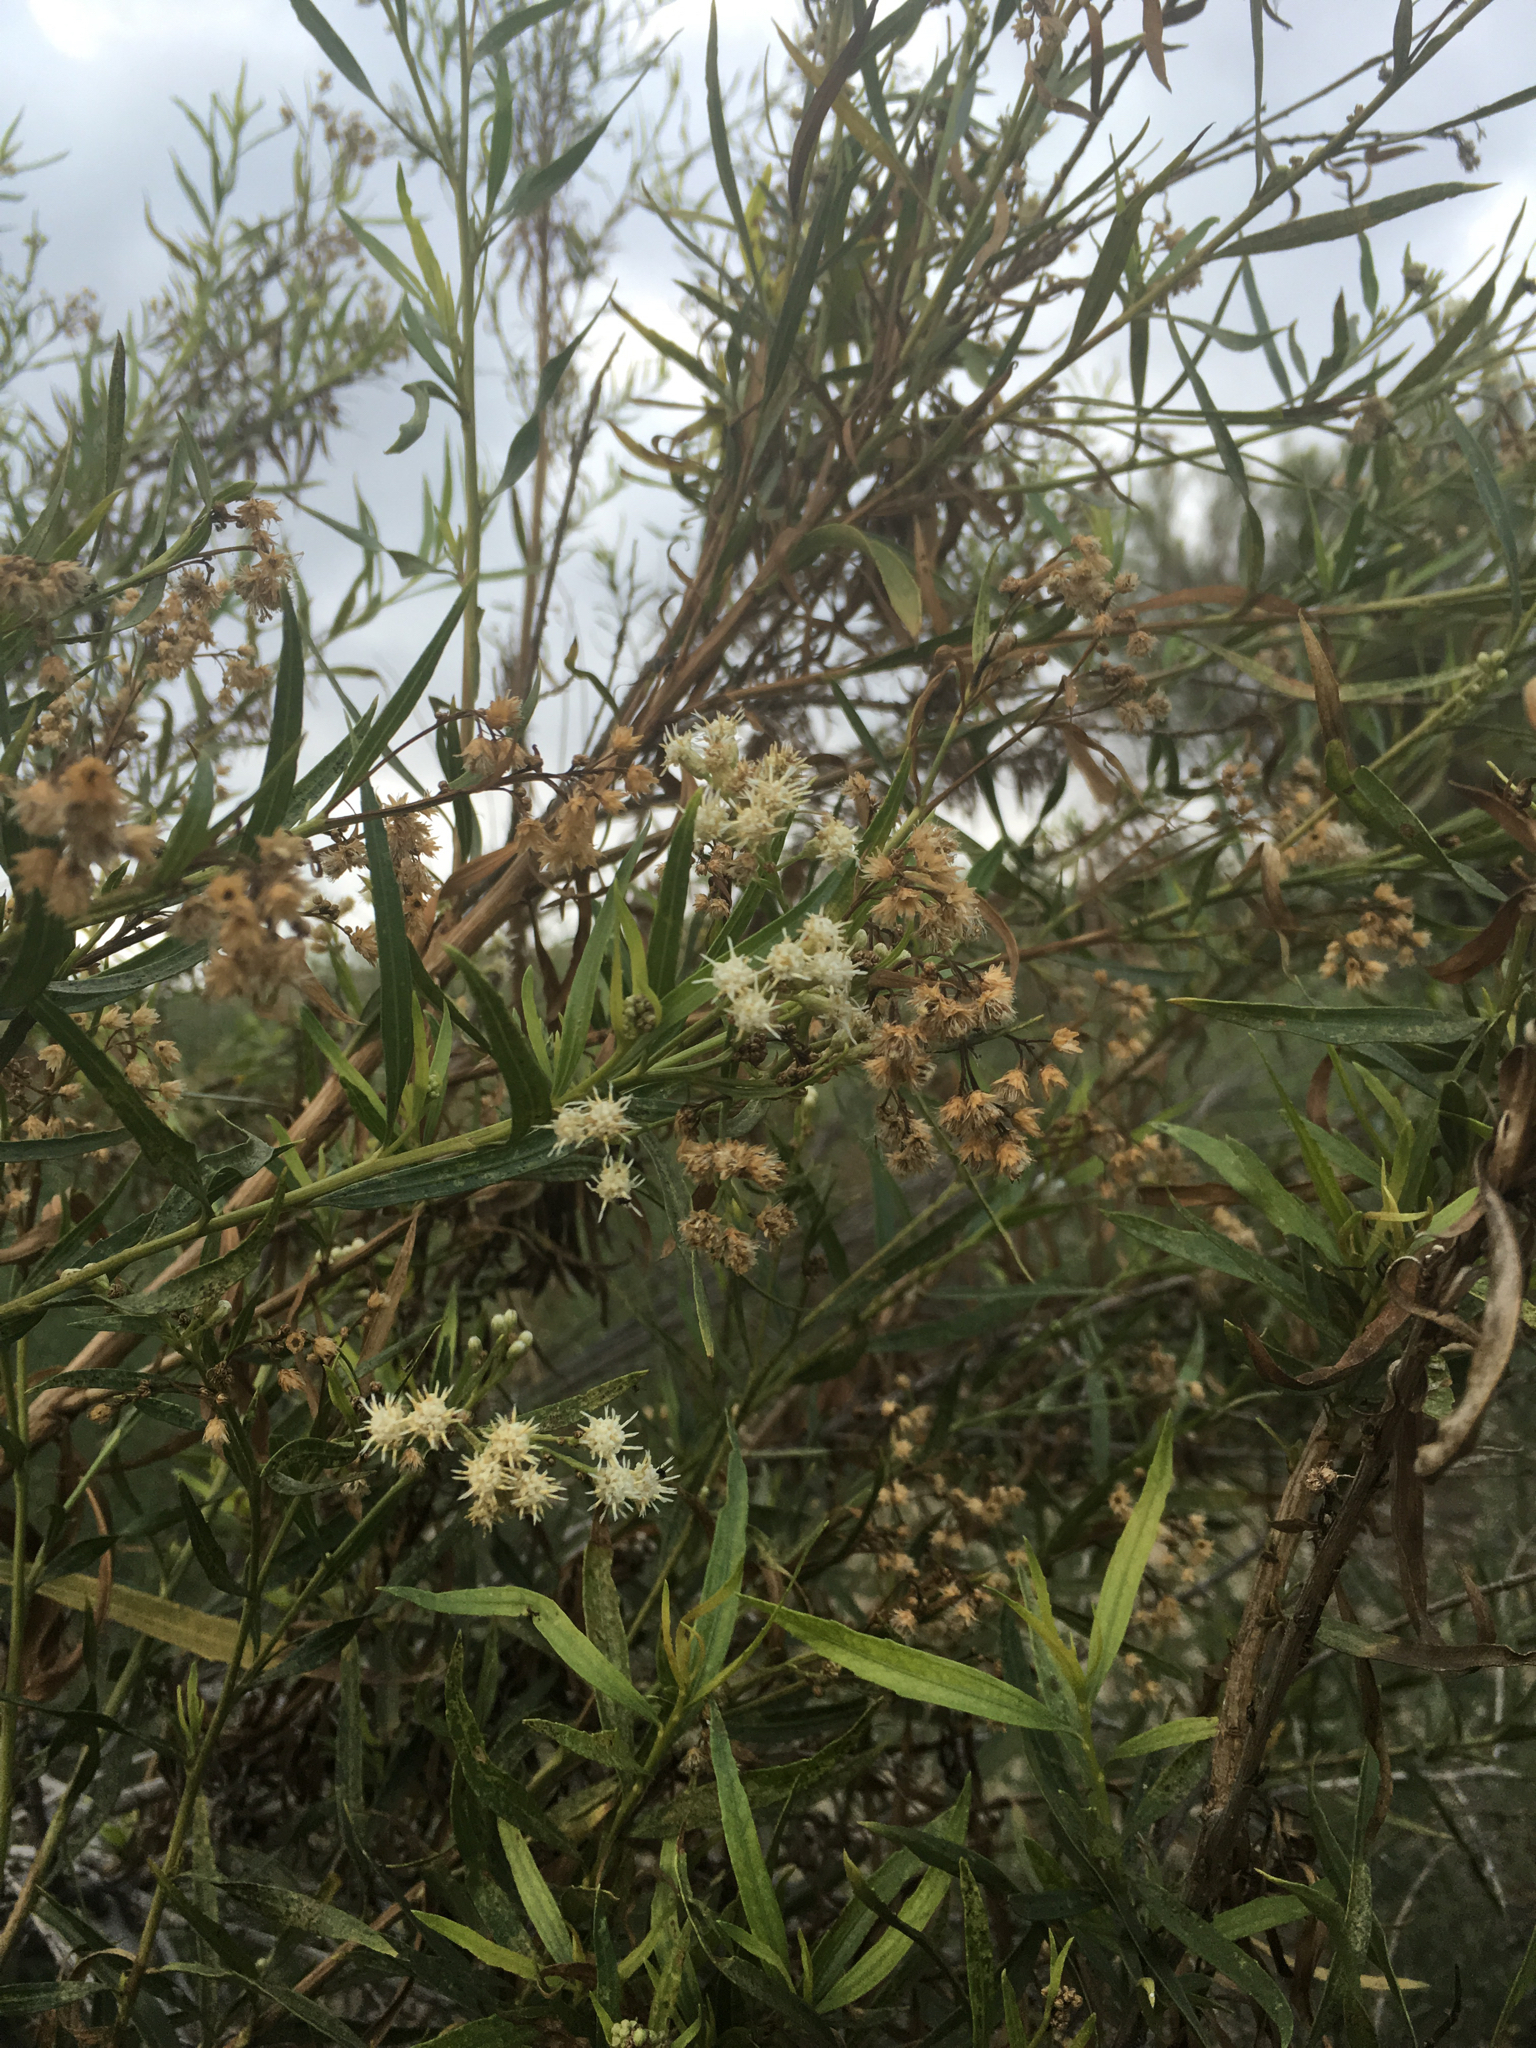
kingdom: Plantae
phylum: Tracheophyta
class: Magnoliopsida
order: Asterales
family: Asteraceae
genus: Baccharis
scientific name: Baccharis salicifolia
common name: Sticky baccharis
